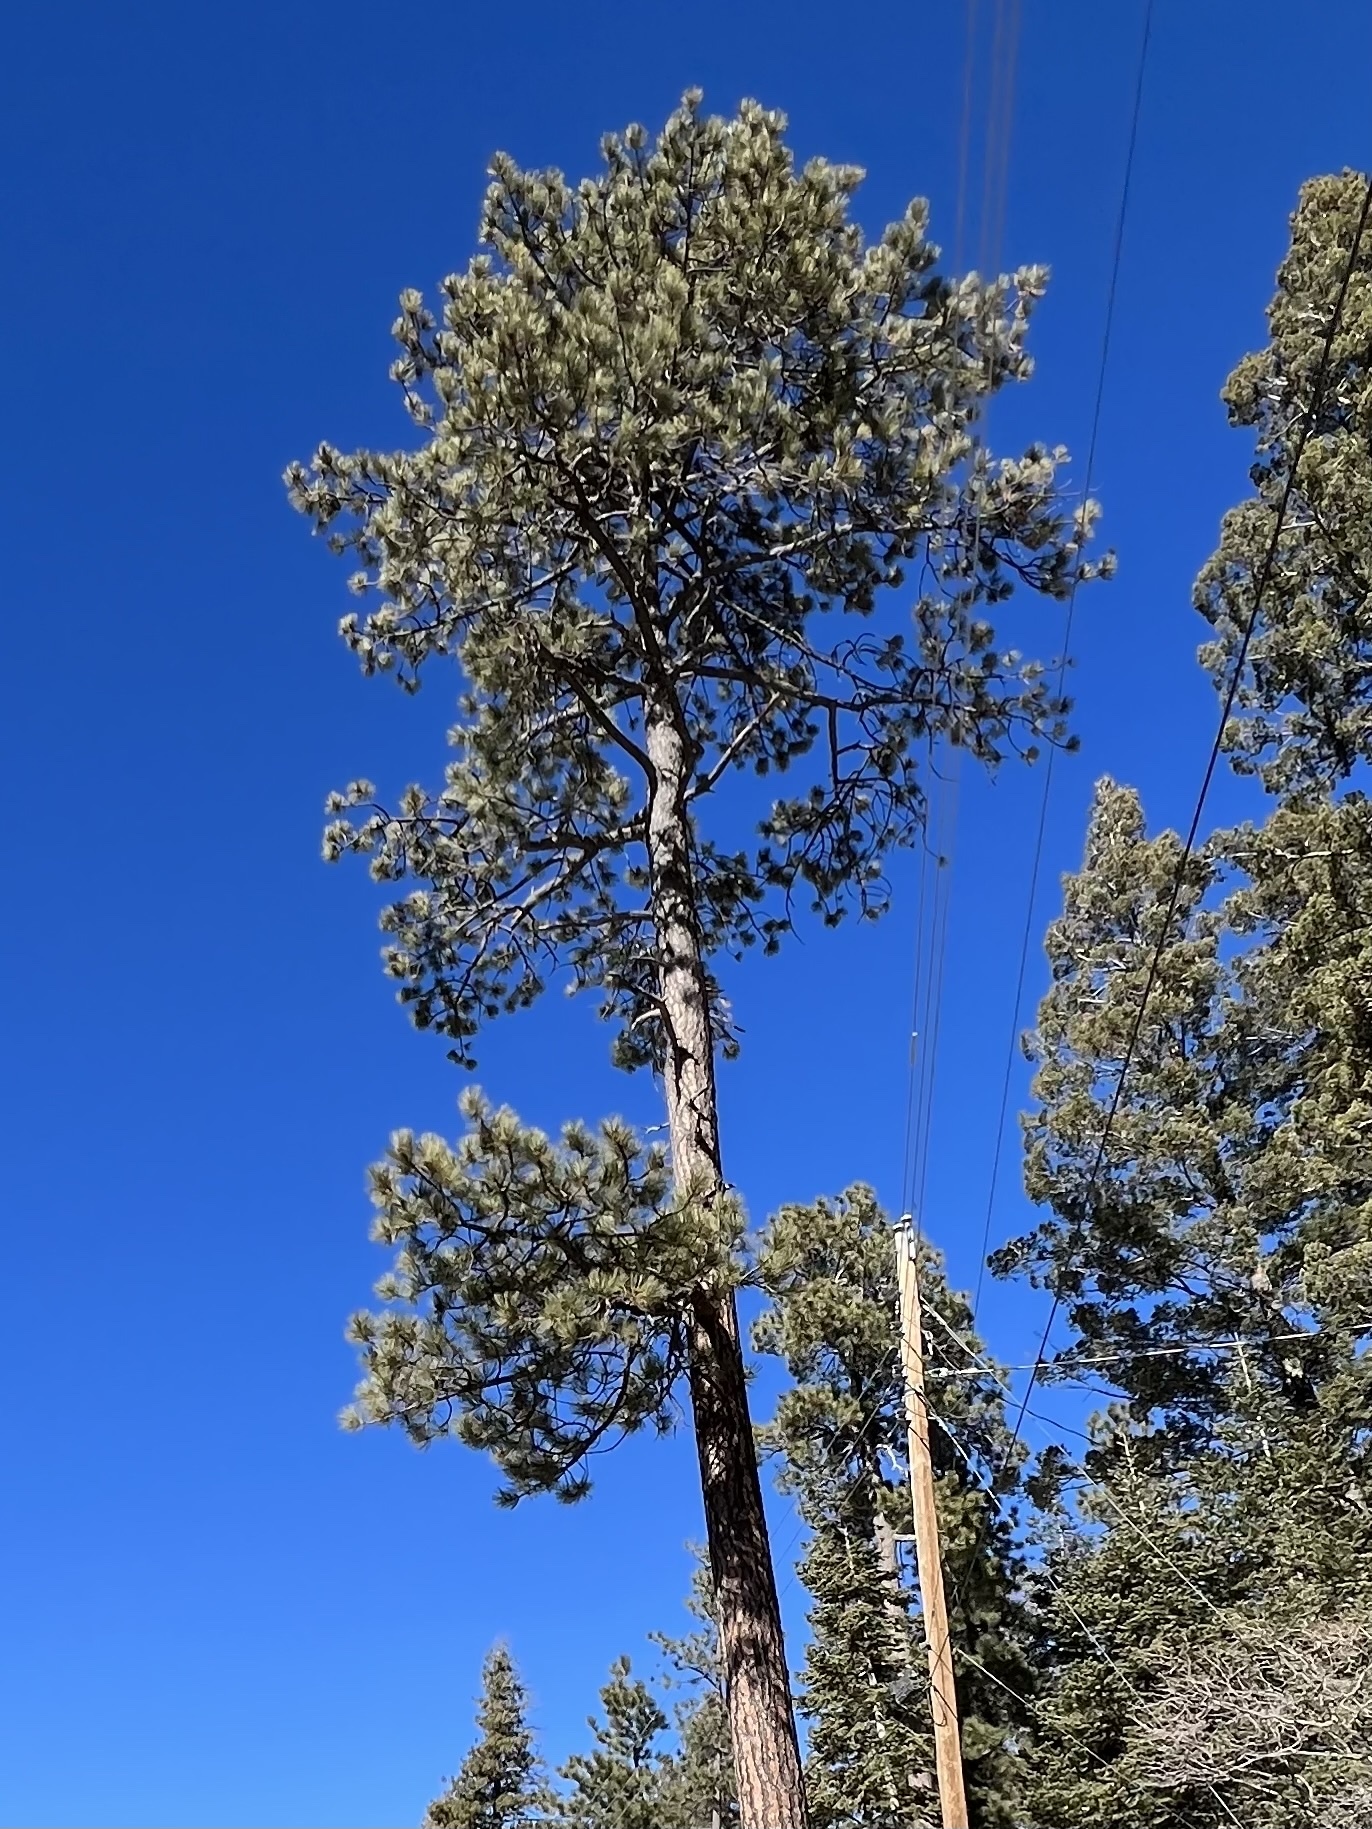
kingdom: Plantae
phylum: Tracheophyta
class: Pinopsida
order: Pinales
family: Pinaceae
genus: Pinus
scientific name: Pinus ponderosa
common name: Western yellow-pine
